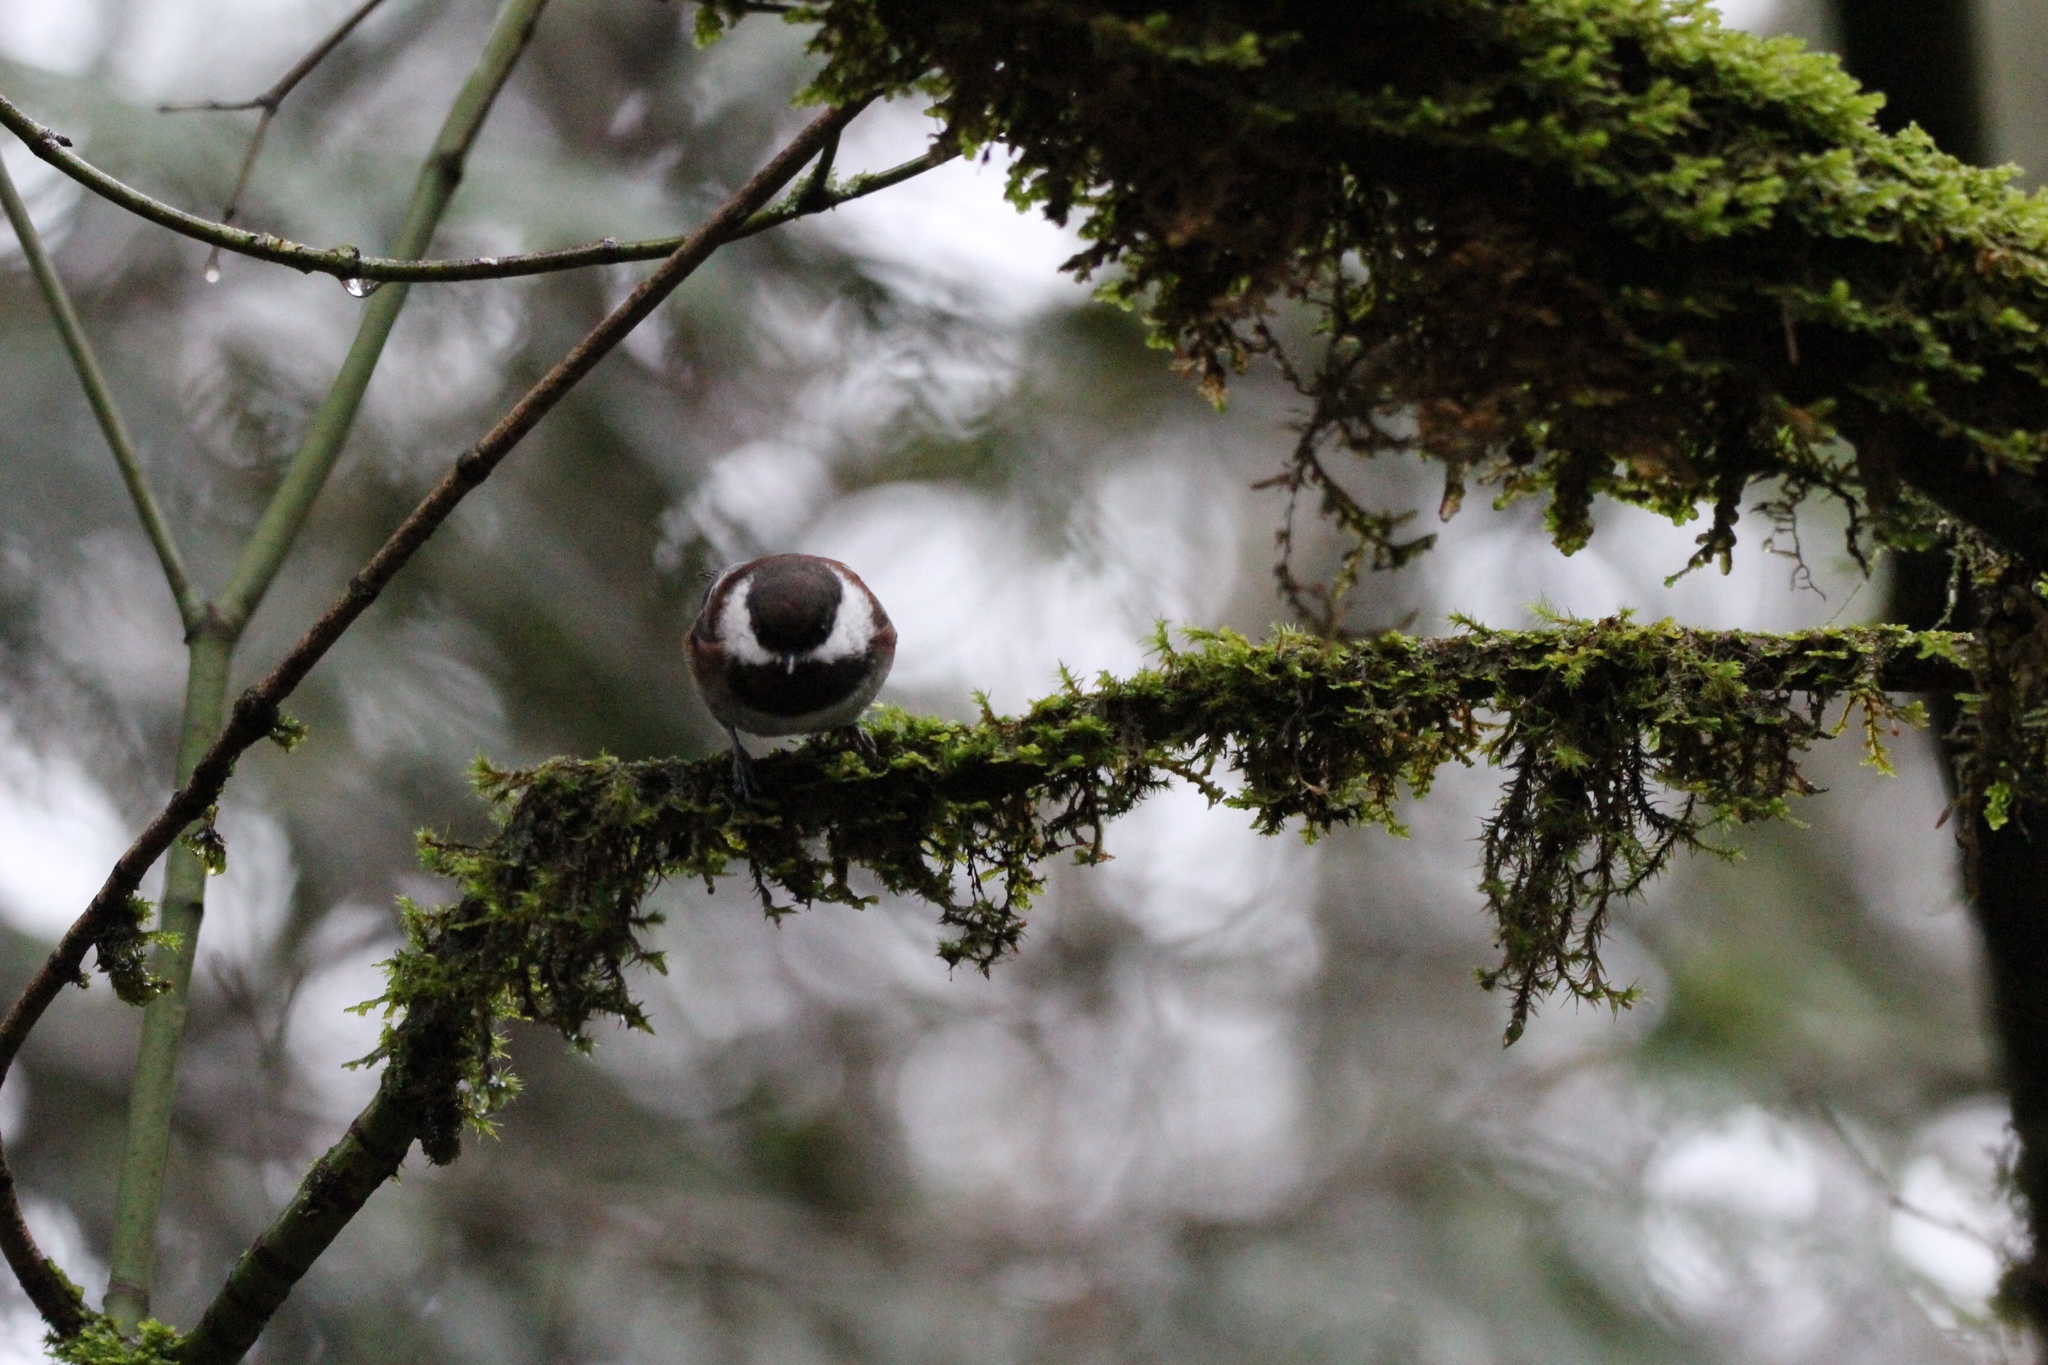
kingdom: Animalia
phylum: Chordata
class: Aves
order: Passeriformes
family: Paridae
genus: Poecile
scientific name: Poecile rufescens
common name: Chestnut-backed chickadee
